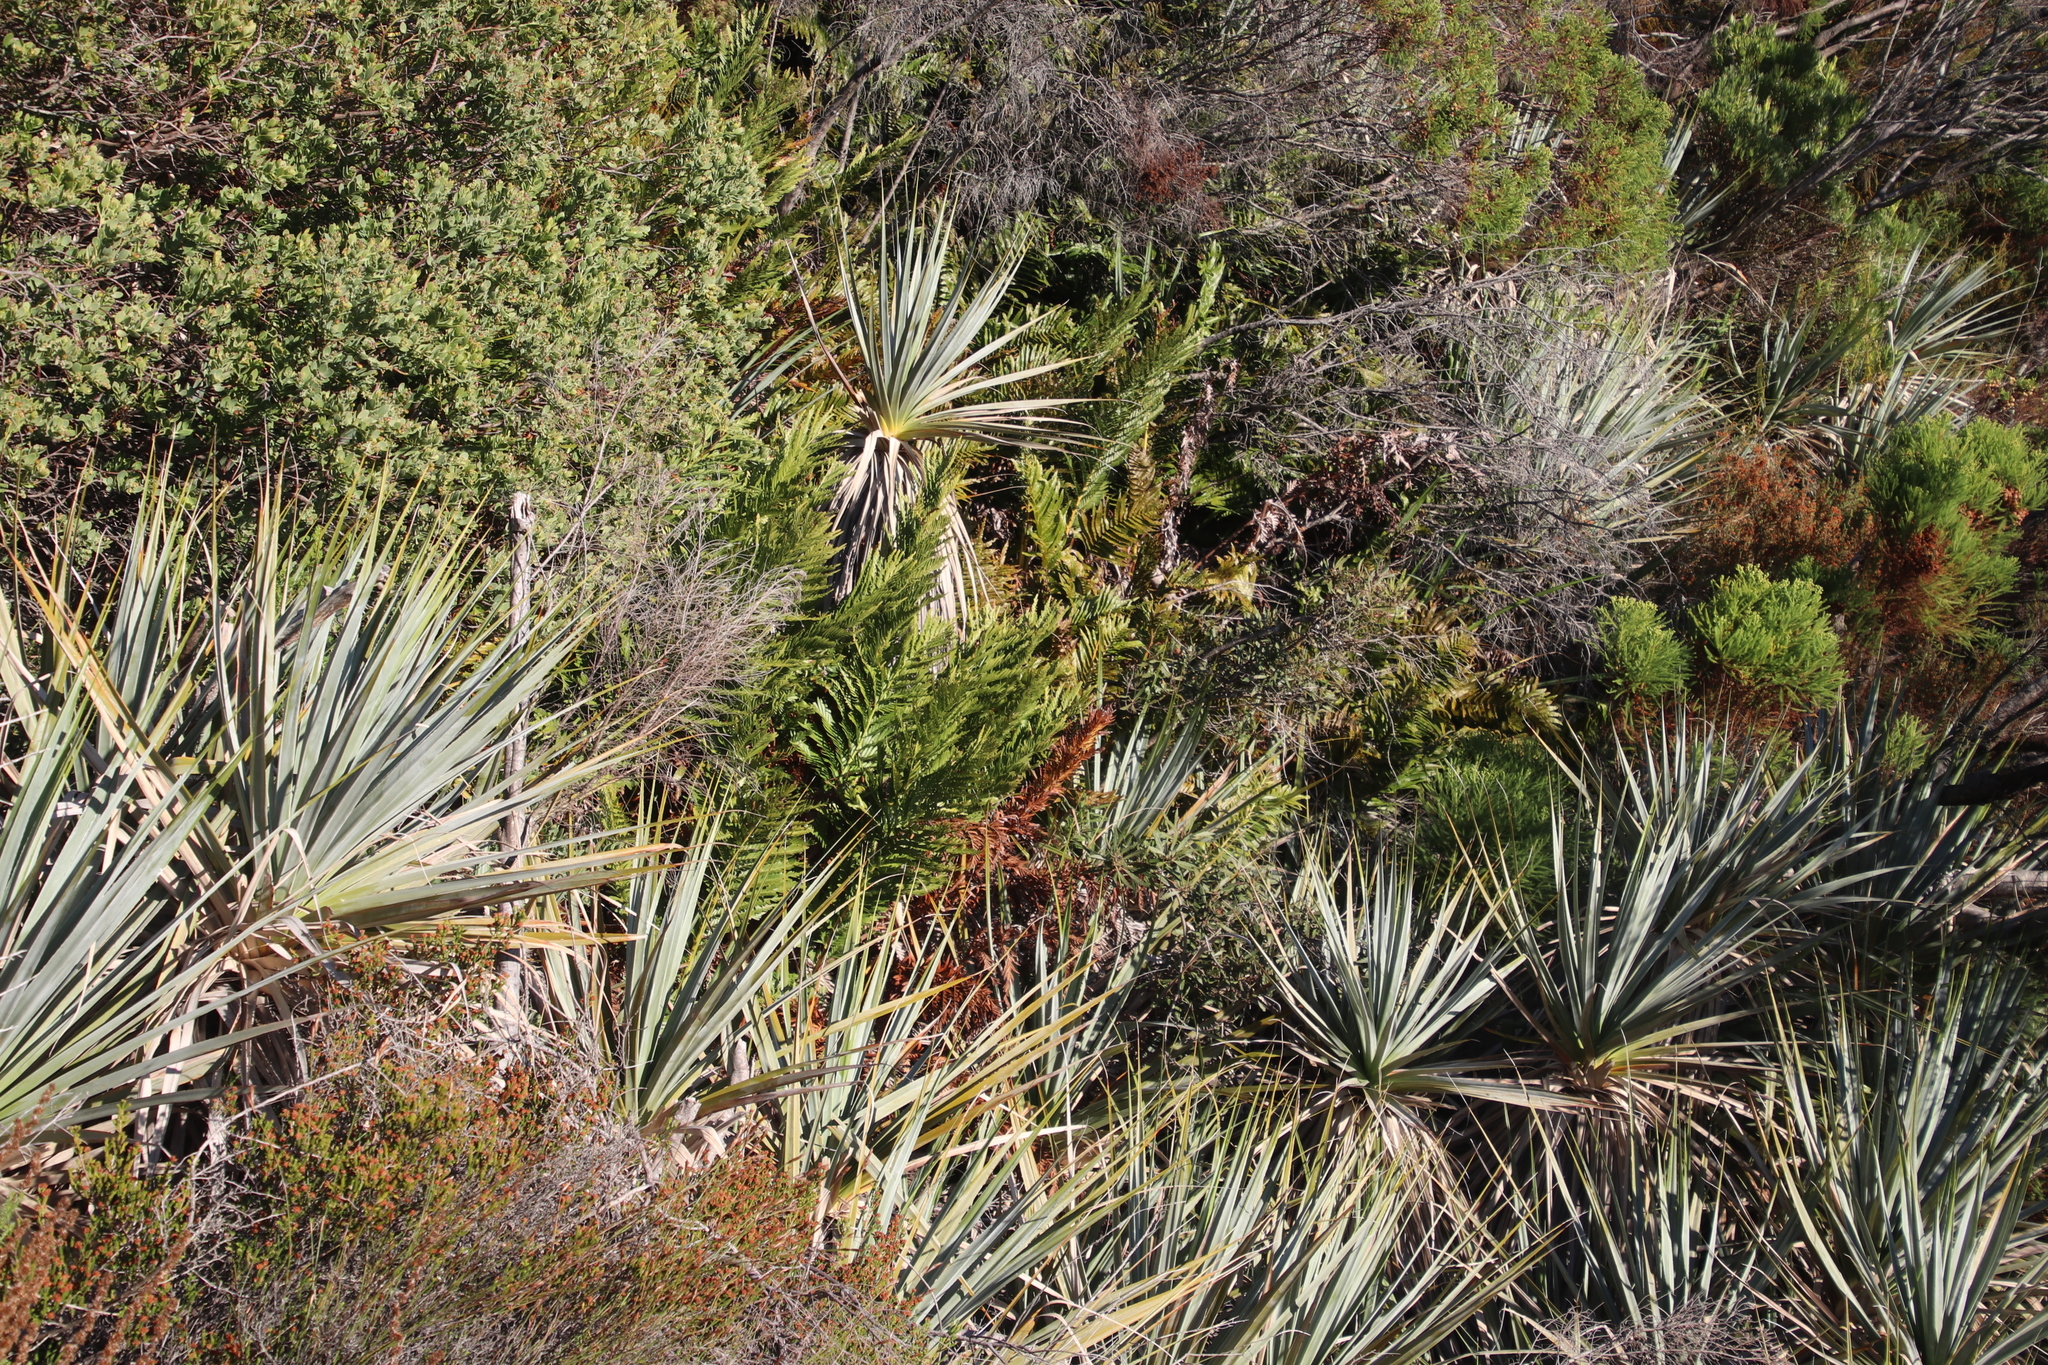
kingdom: Plantae
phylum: Tracheophyta
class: Polypodiopsida
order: Osmundales
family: Osmundaceae
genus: Todea
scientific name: Todea barbara
